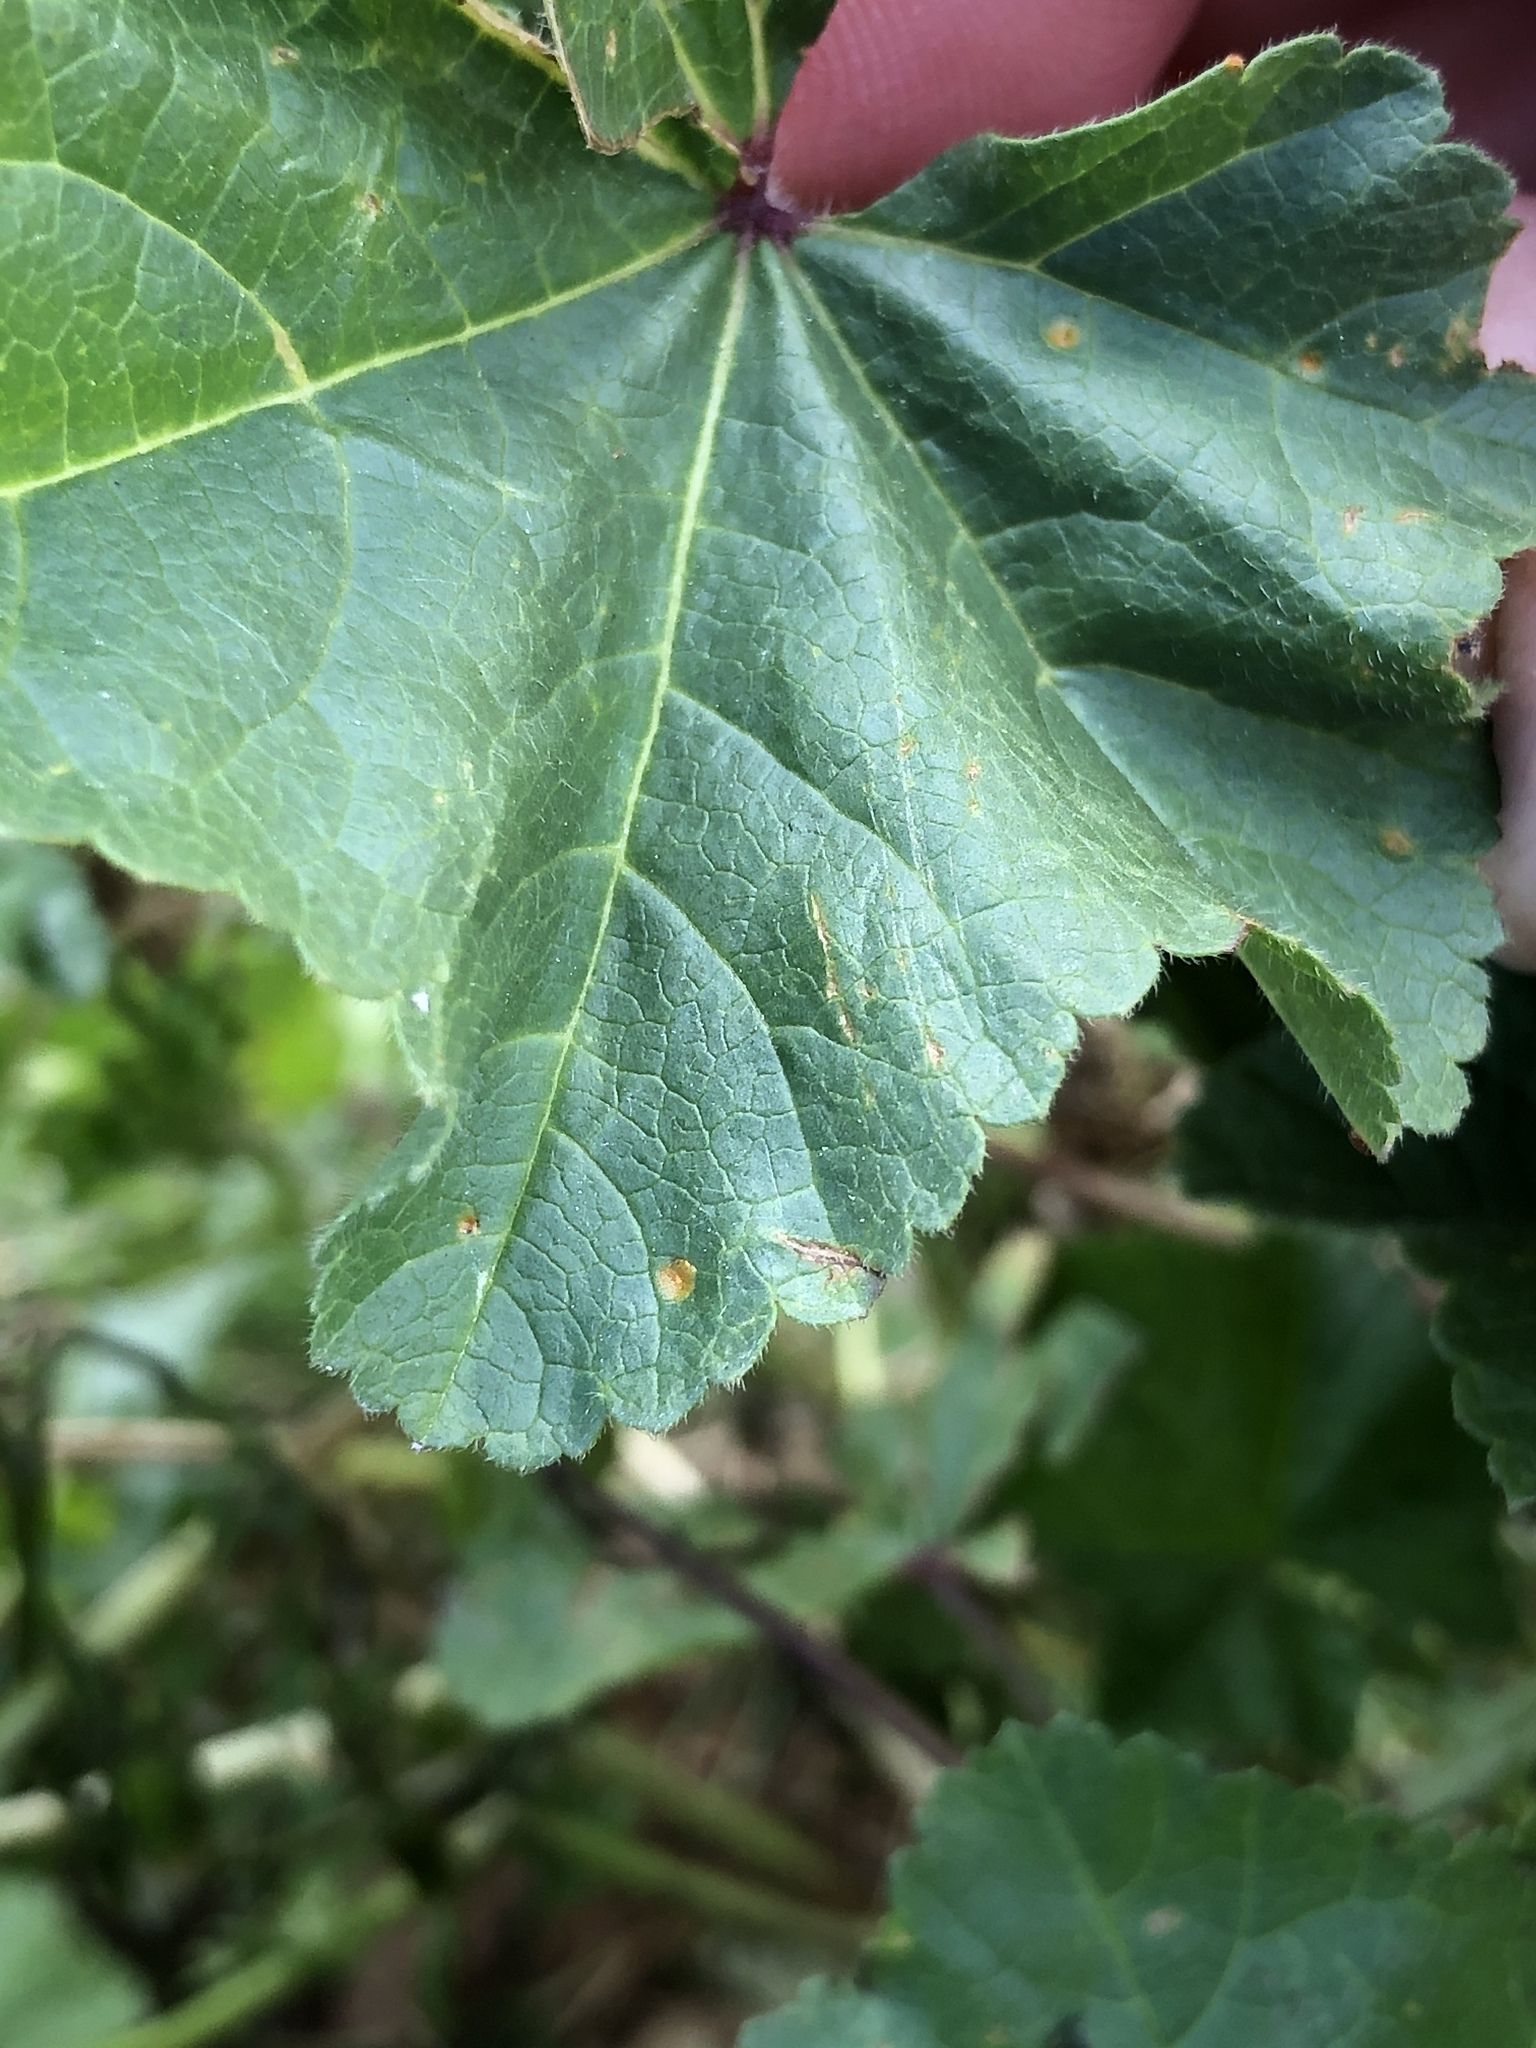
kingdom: Fungi
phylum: Basidiomycota
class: Pucciniomycetes
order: Pucciniales
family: Pucciniaceae
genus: Puccinia
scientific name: Puccinia malvacearum
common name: Hollyhock rust
